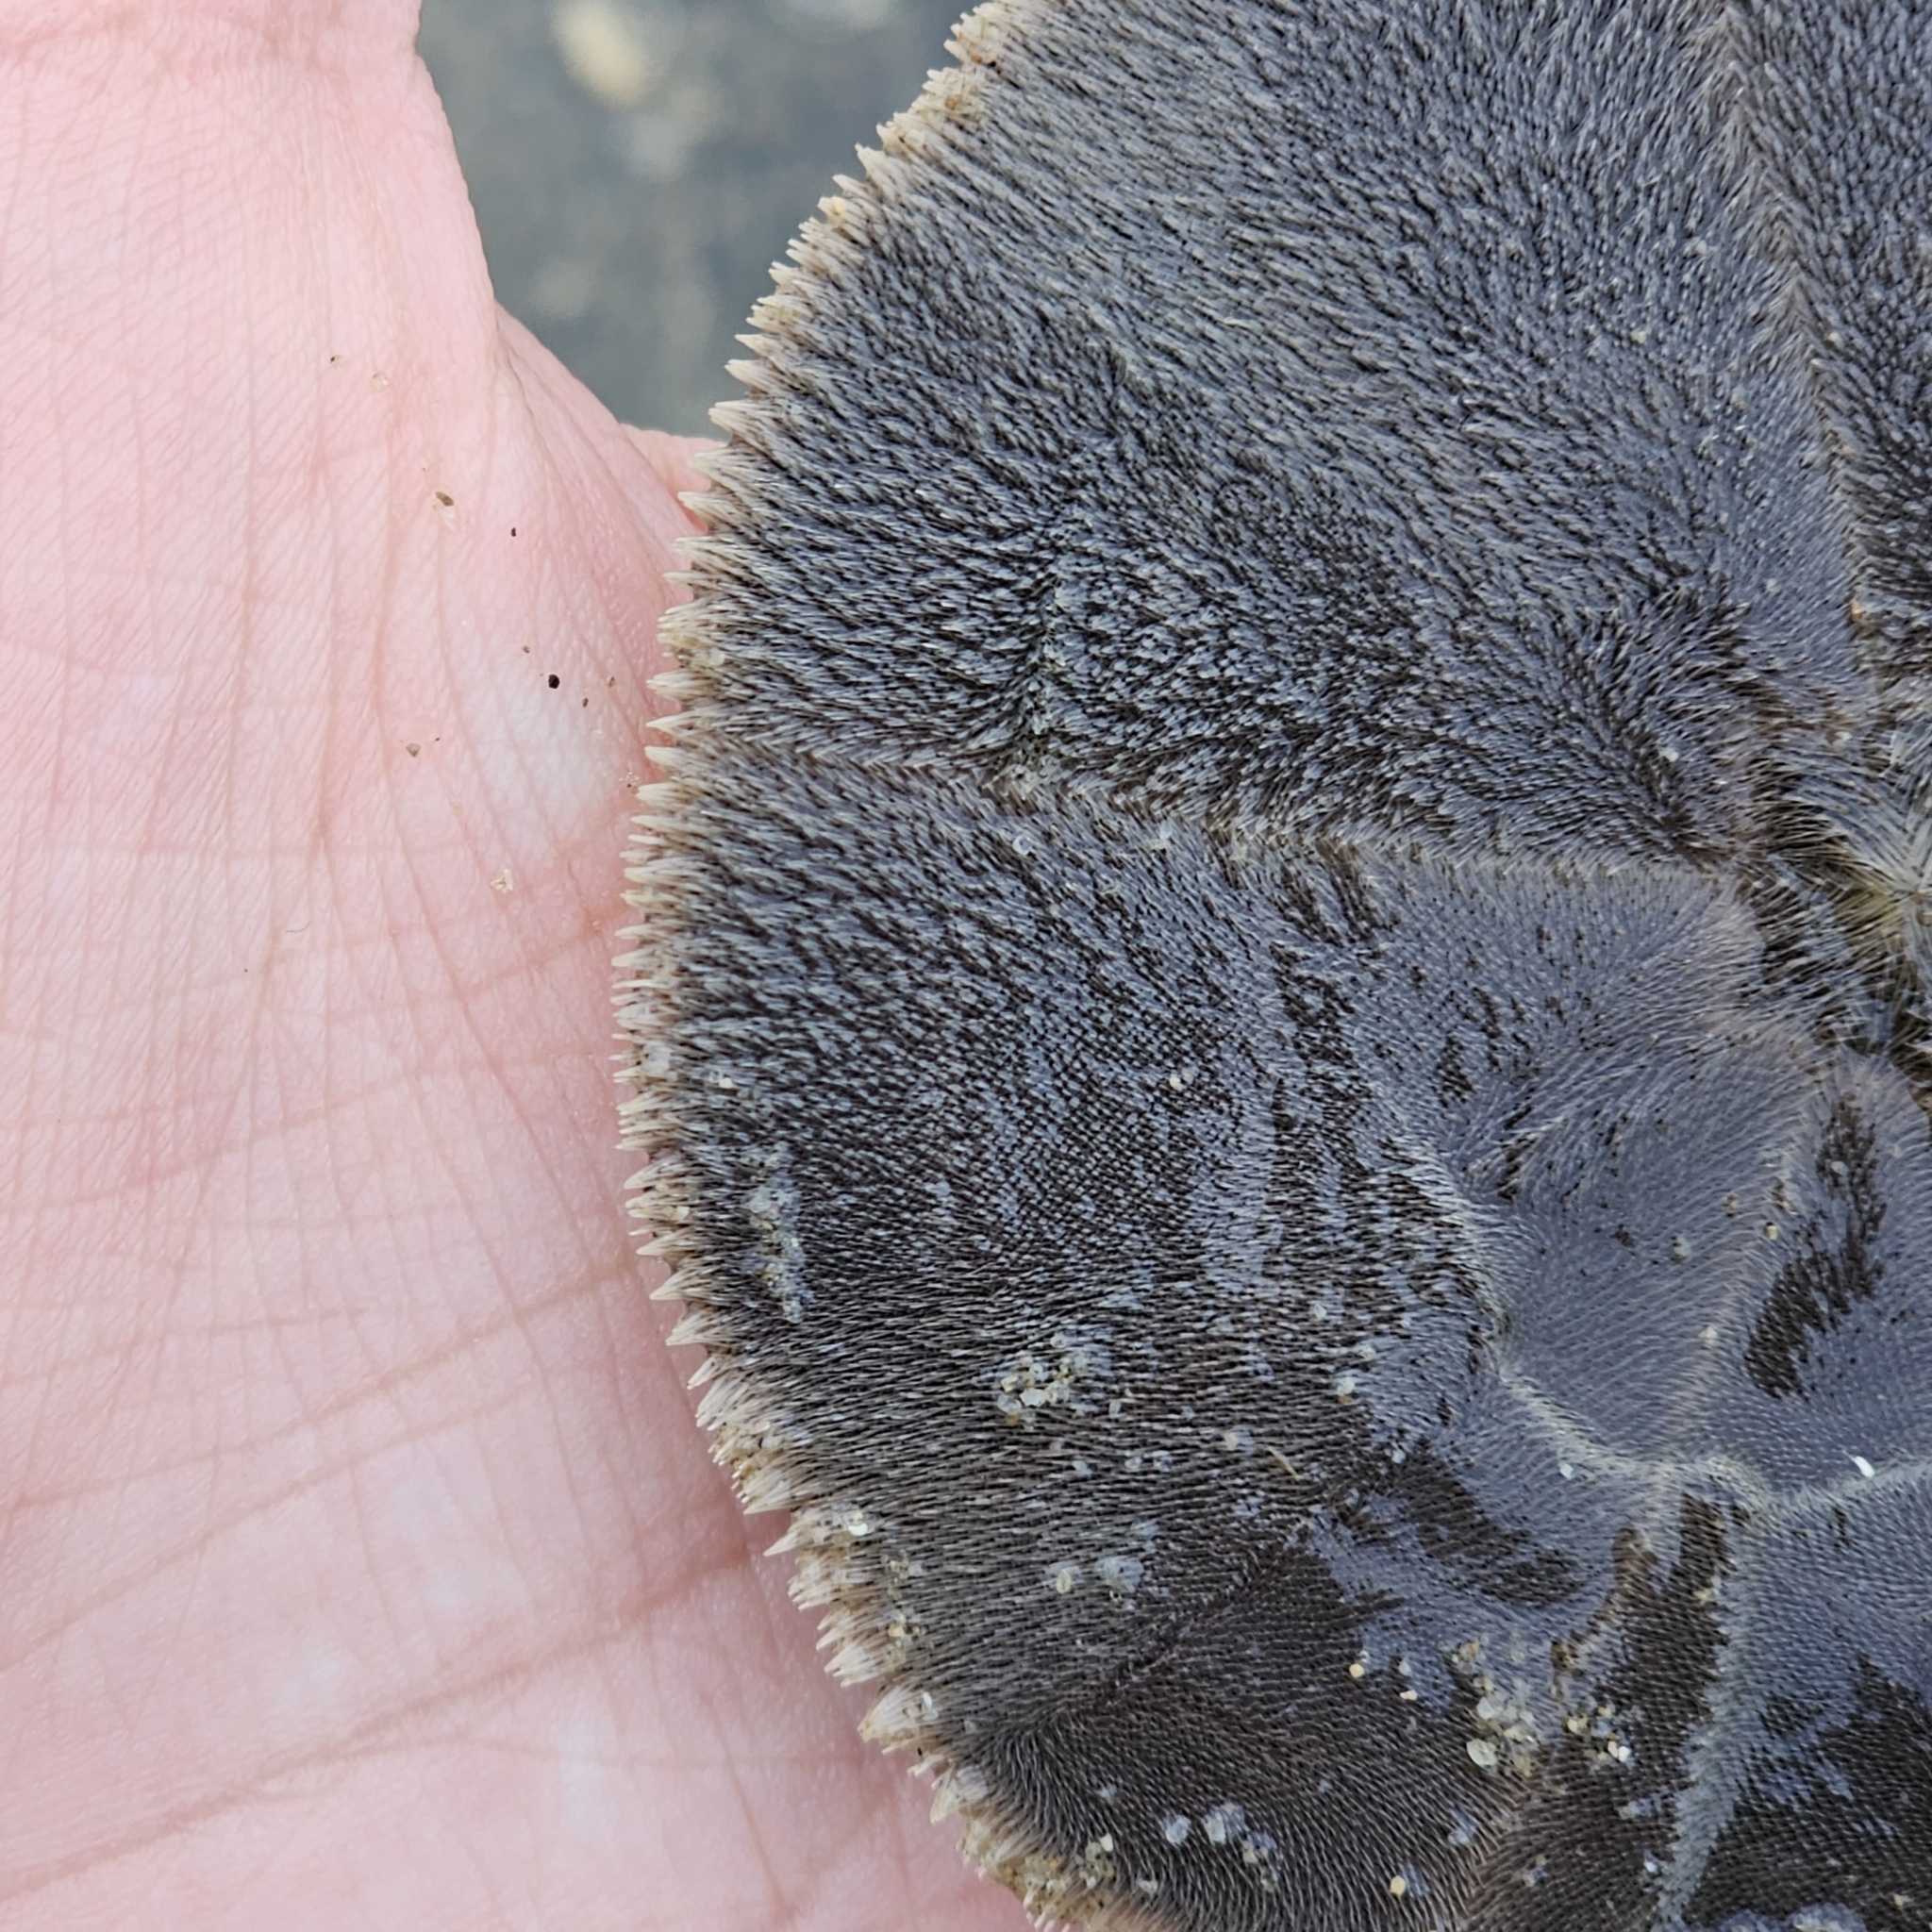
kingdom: Animalia
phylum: Echinodermata
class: Echinoidea
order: Clypeasteroida
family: Clypeasteridae
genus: Arachnoides
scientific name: Arachnoides placenta
